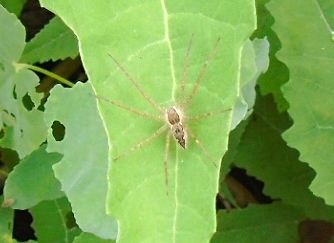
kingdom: Animalia
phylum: Arthropoda
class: Arachnida
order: Araneae
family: Pisauridae
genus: Tinus
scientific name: Tinus
